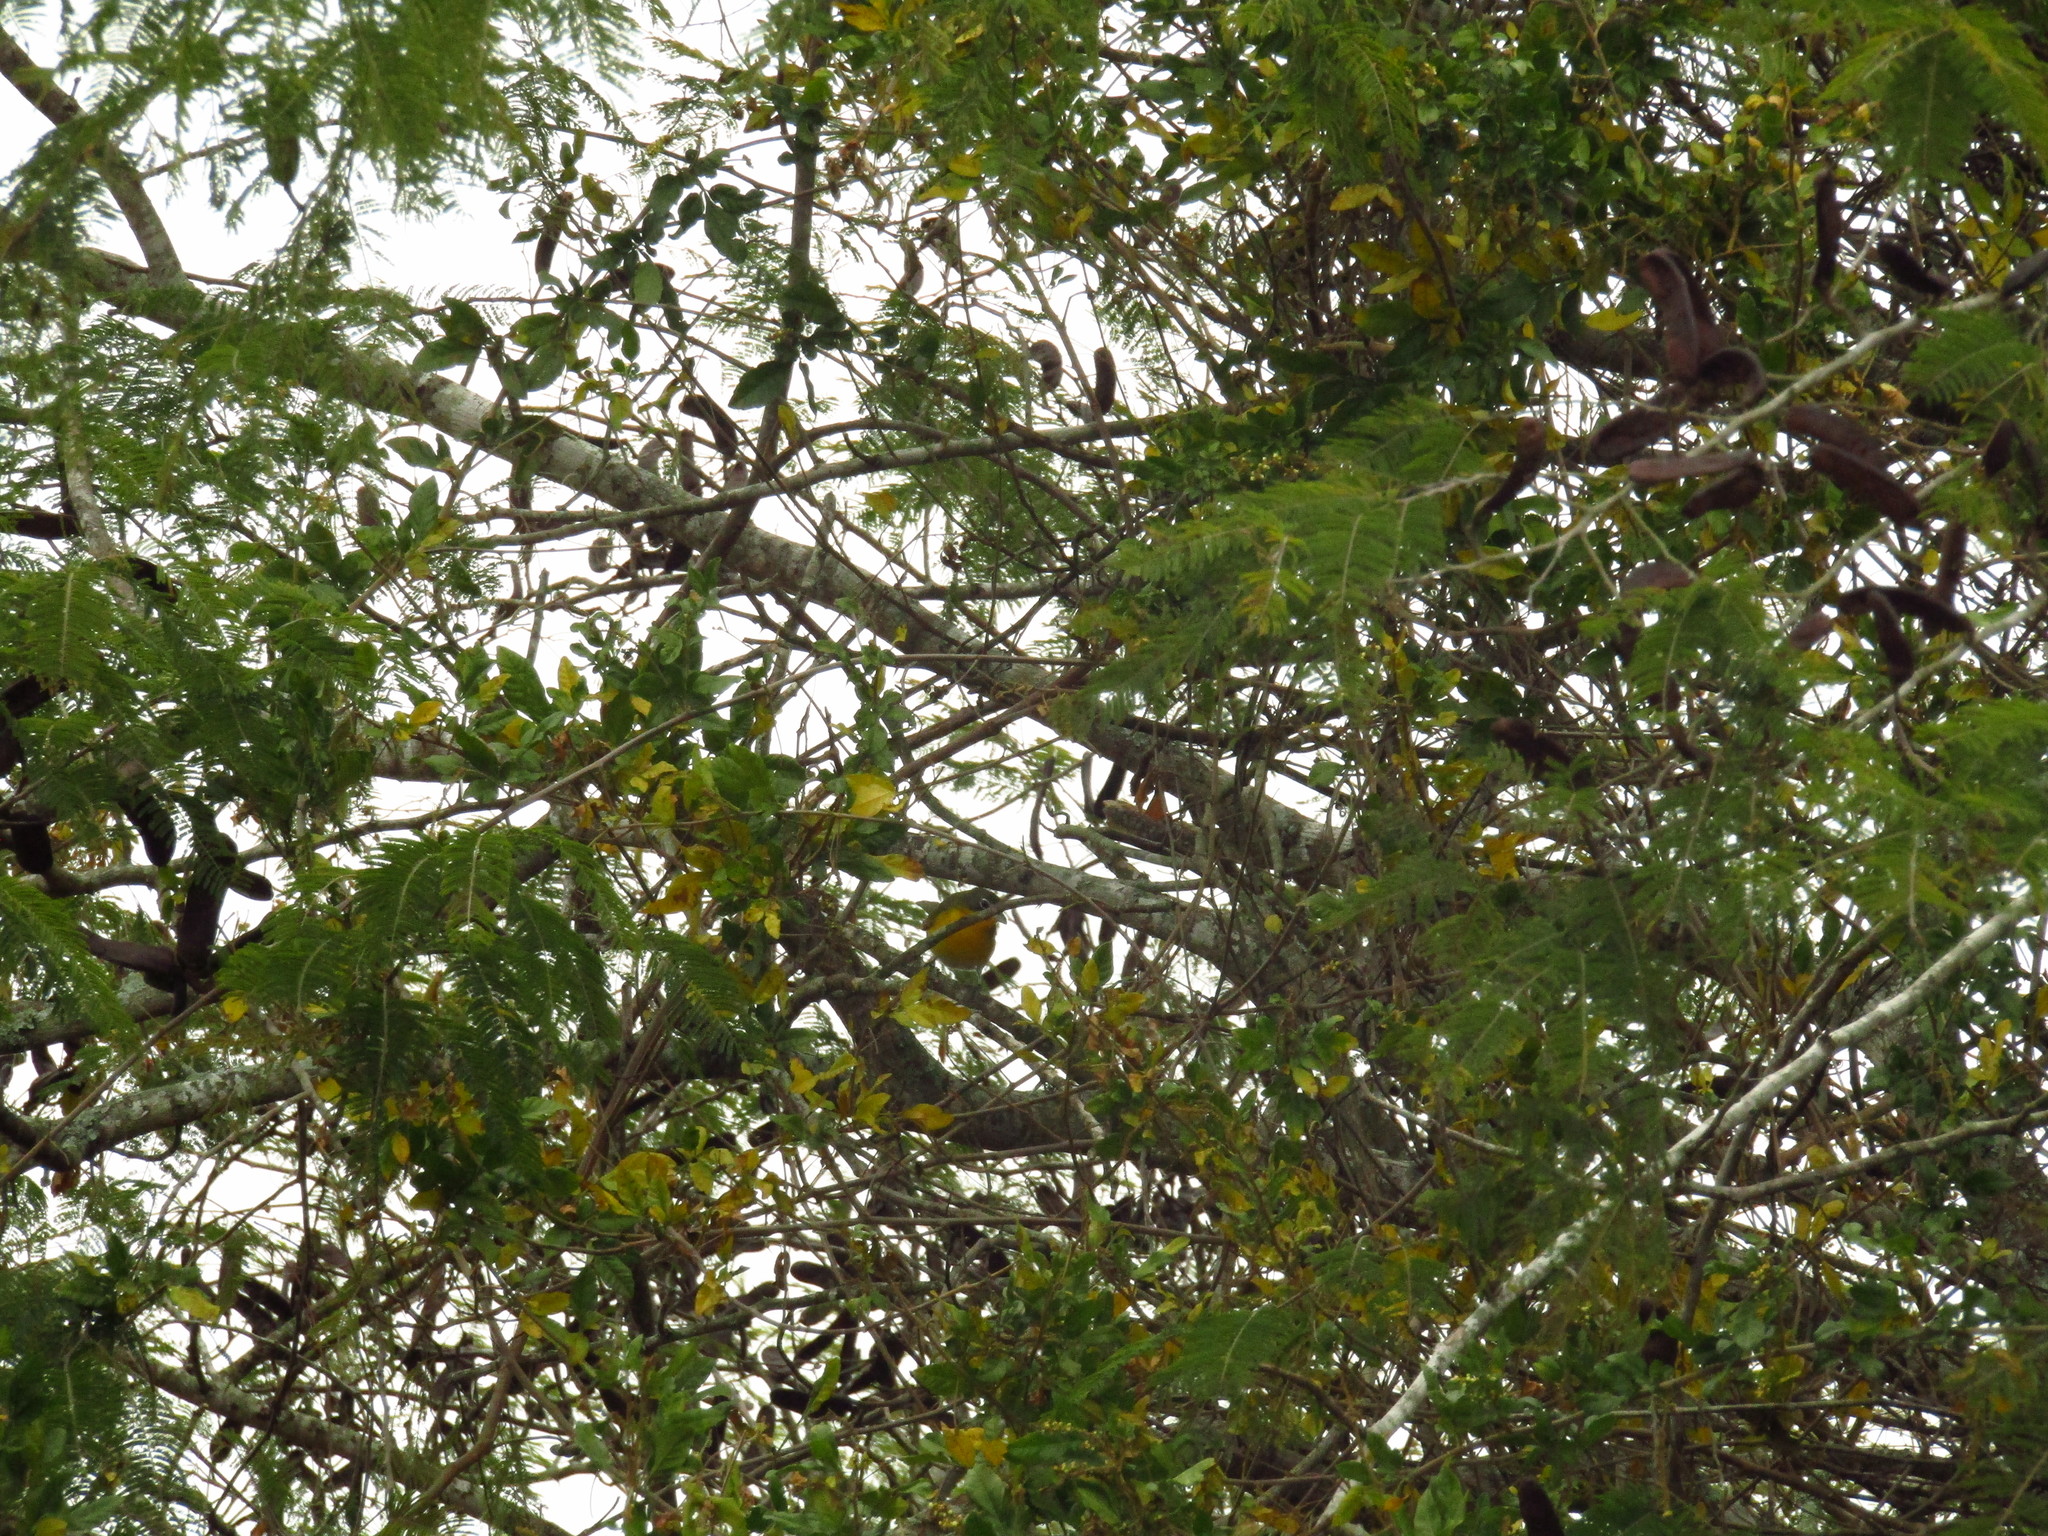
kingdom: Animalia
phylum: Chordata
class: Aves
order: Passeriformes
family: Parulidae
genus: Icteria
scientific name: Icteria virens
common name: Yellow-breasted chat
